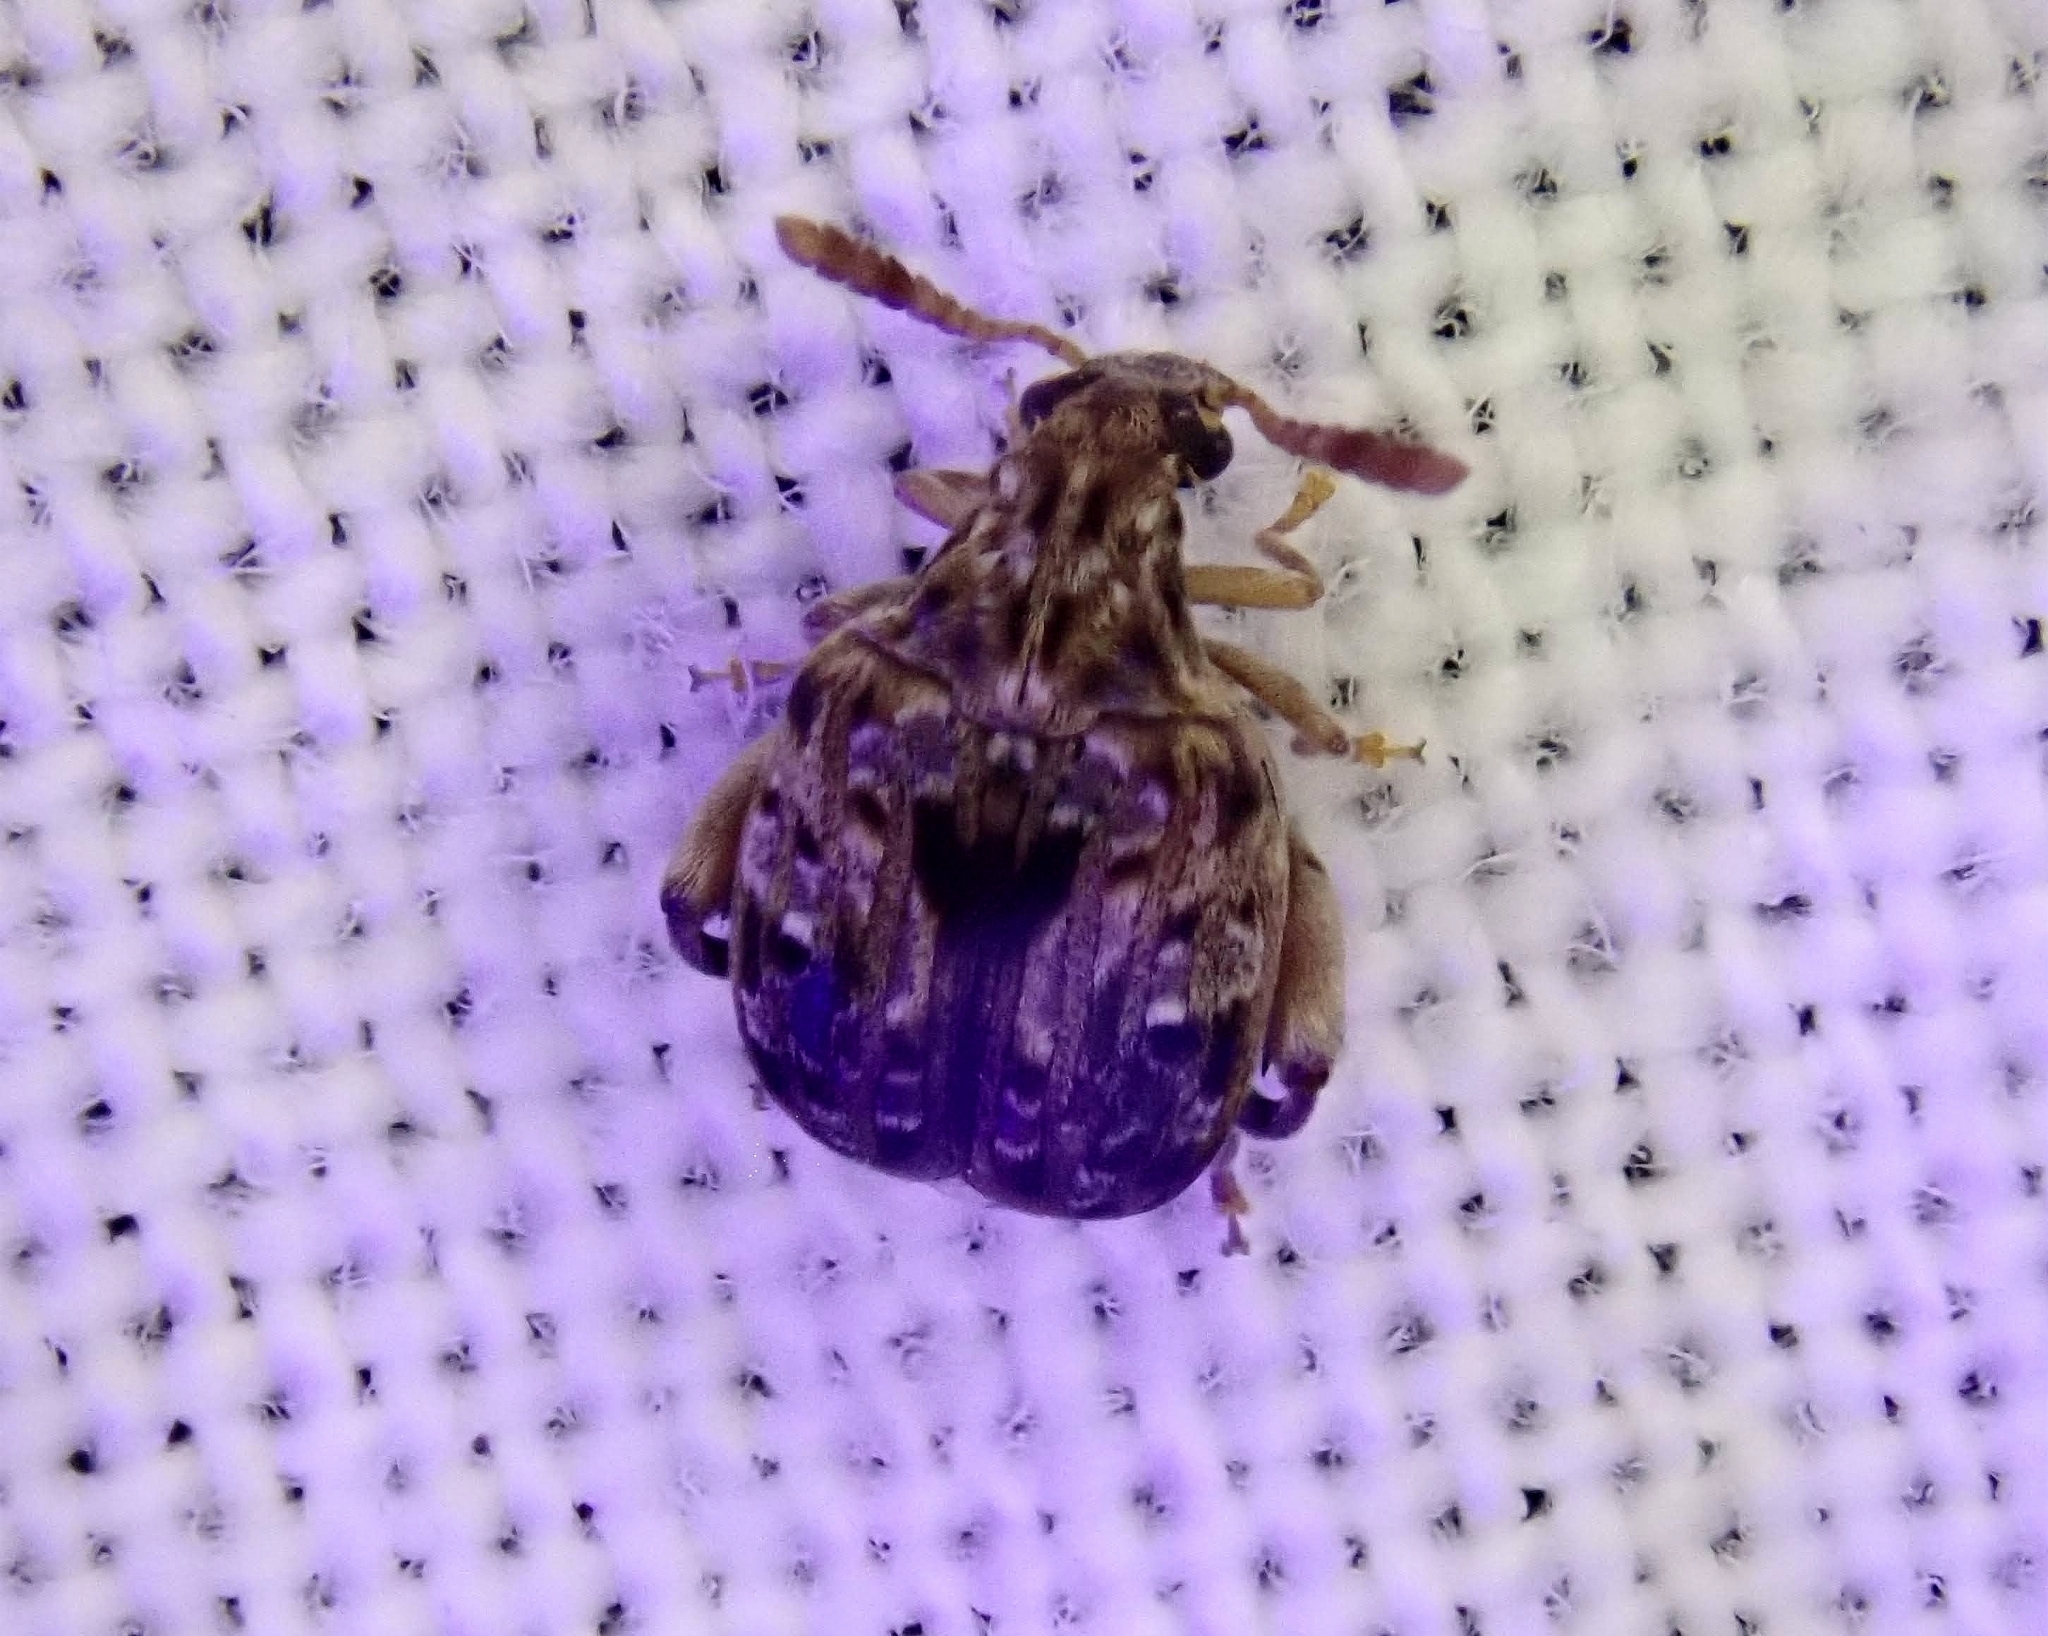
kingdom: Animalia
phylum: Arthropoda
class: Insecta
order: Coleoptera
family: Chrysomelidae
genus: Gibbobruchus
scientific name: Gibbobruchus mimus
